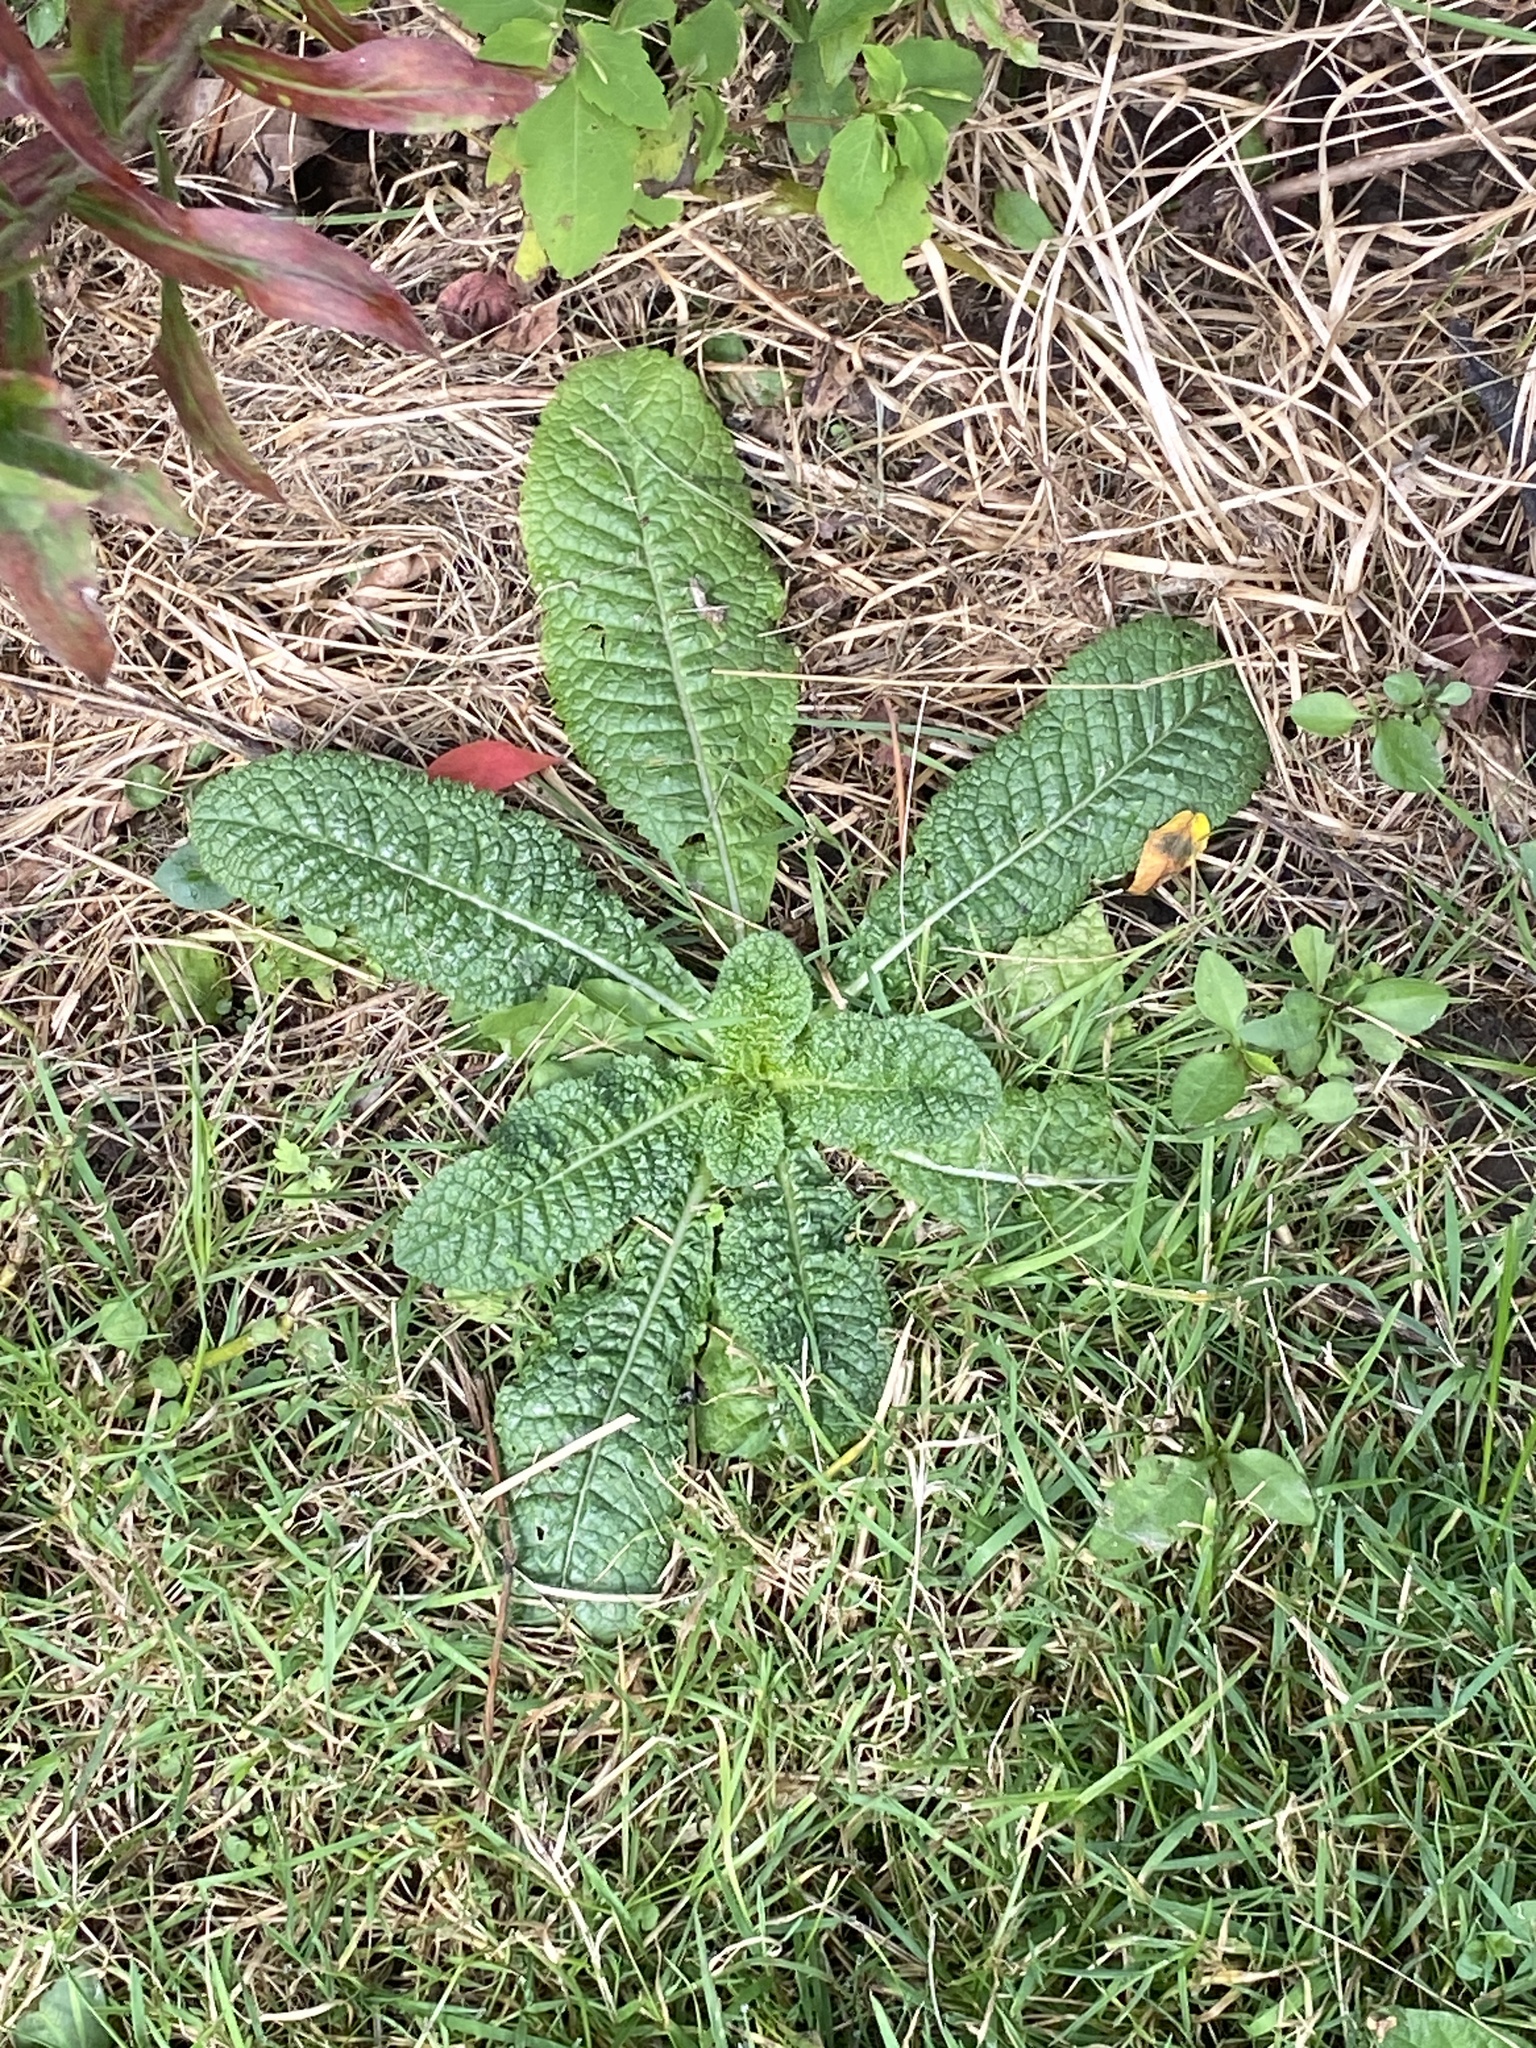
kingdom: Plantae
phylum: Tracheophyta
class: Magnoliopsida
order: Dipsacales
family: Caprifoliaceae
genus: Dipsacus
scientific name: Dipsacus fullonum
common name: Teasel
